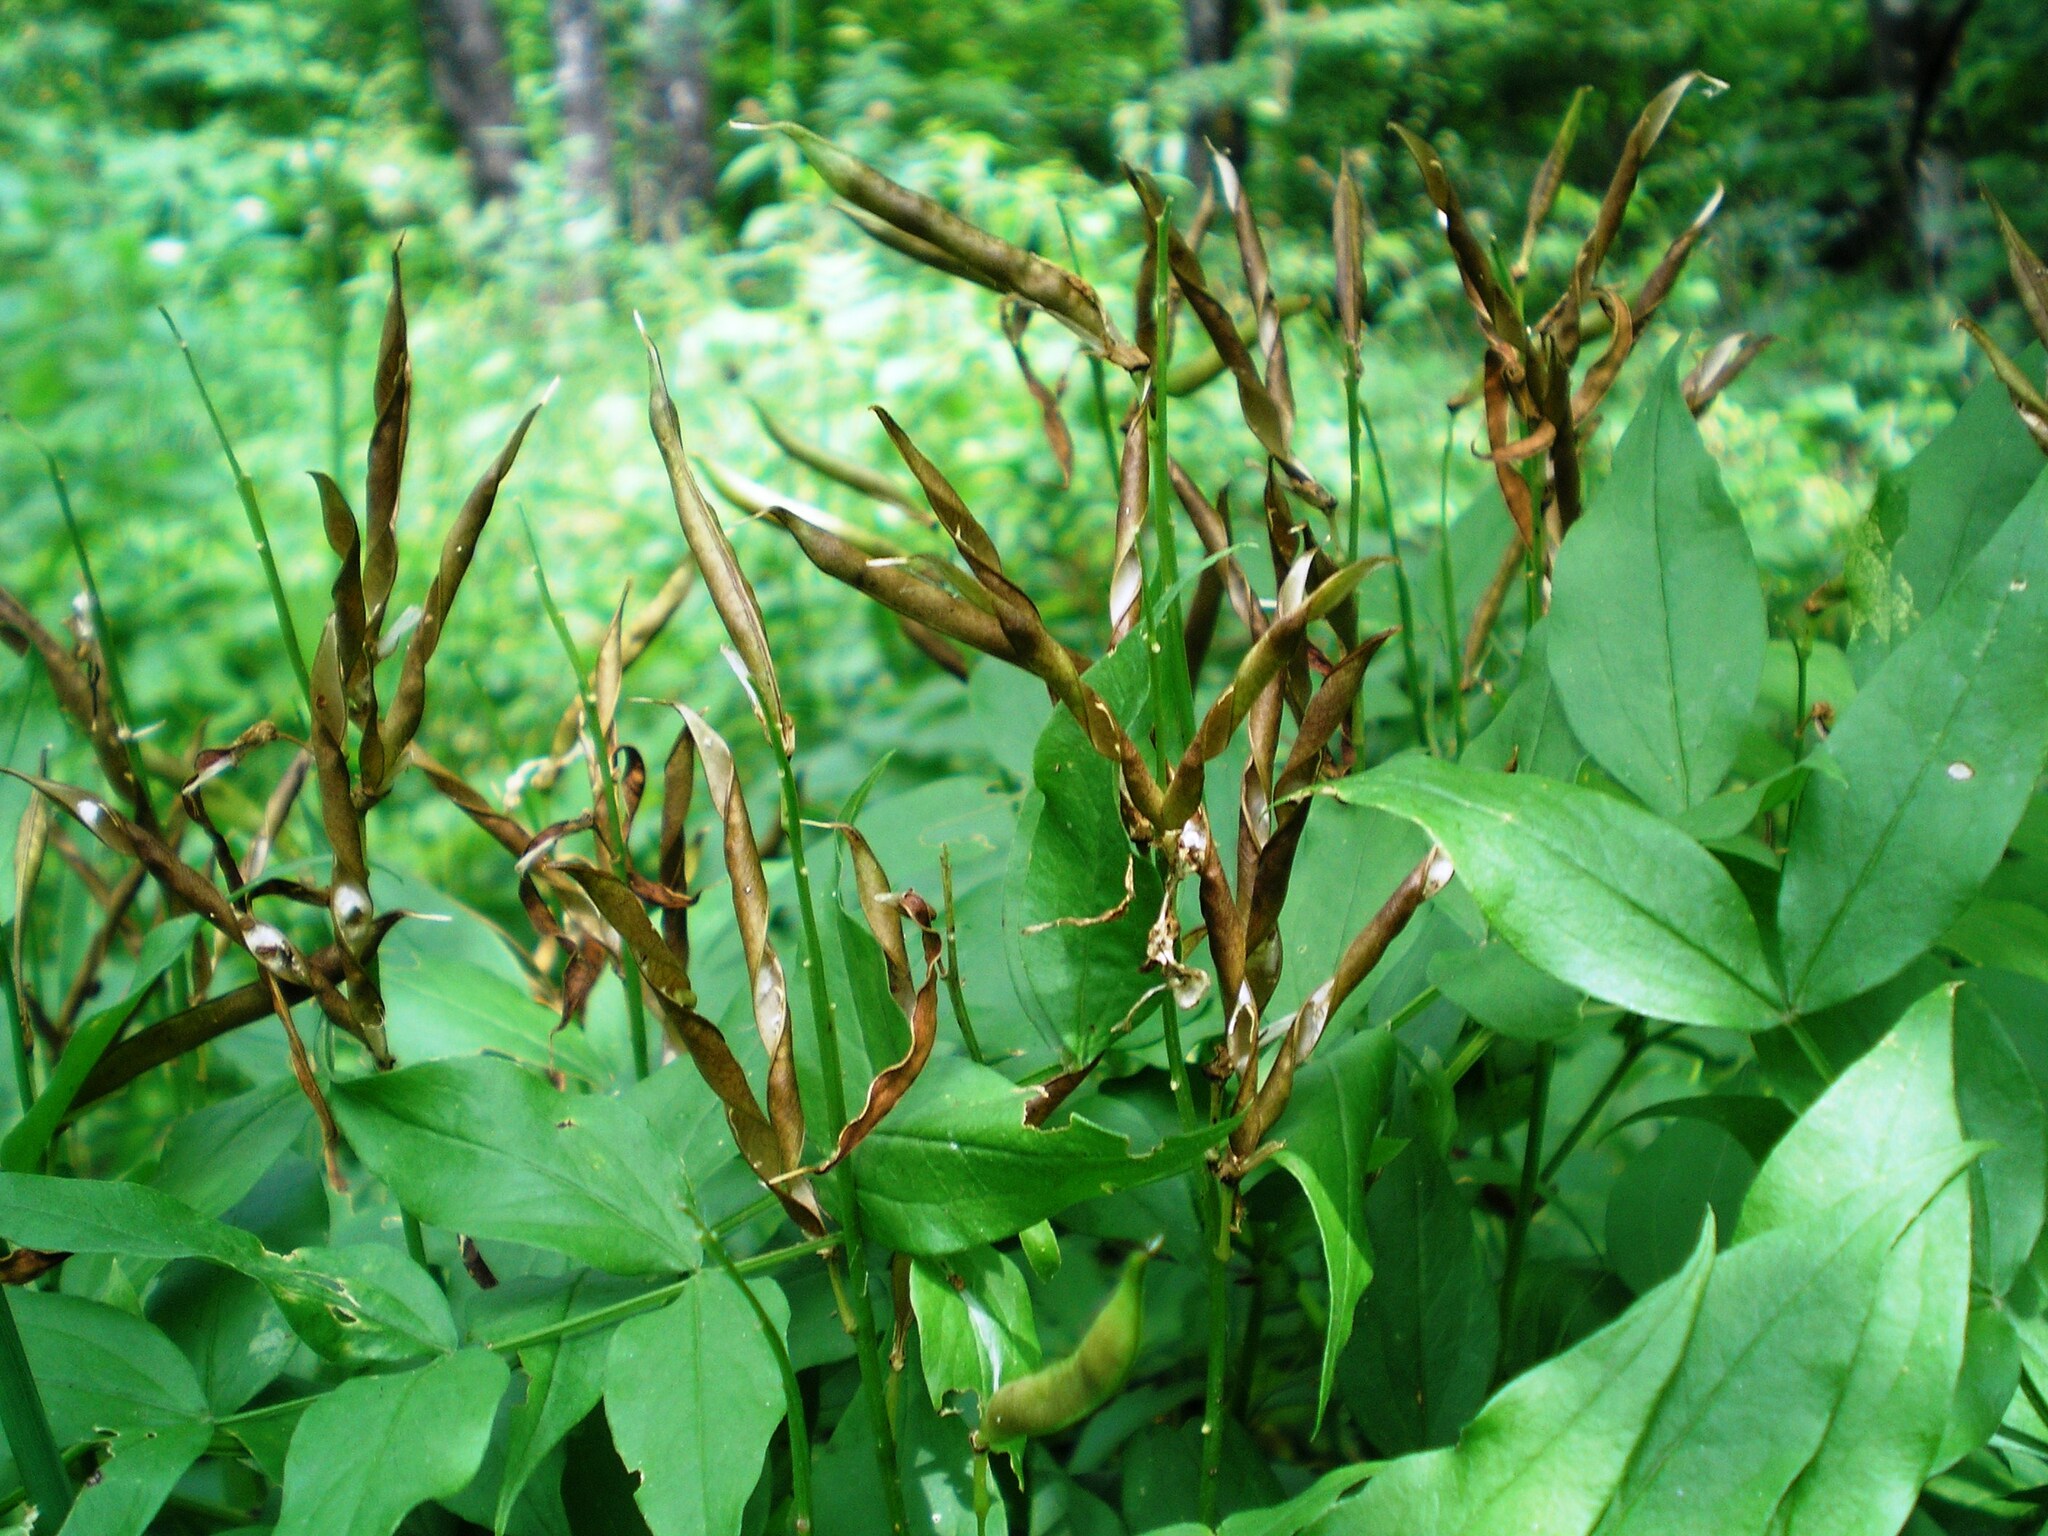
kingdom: Plantae
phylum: Tracheophyta
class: Magnoliopsida
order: Fabales
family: Fabaceae
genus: Lathyrus
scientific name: Lathyrus vernus
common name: Spring pea
